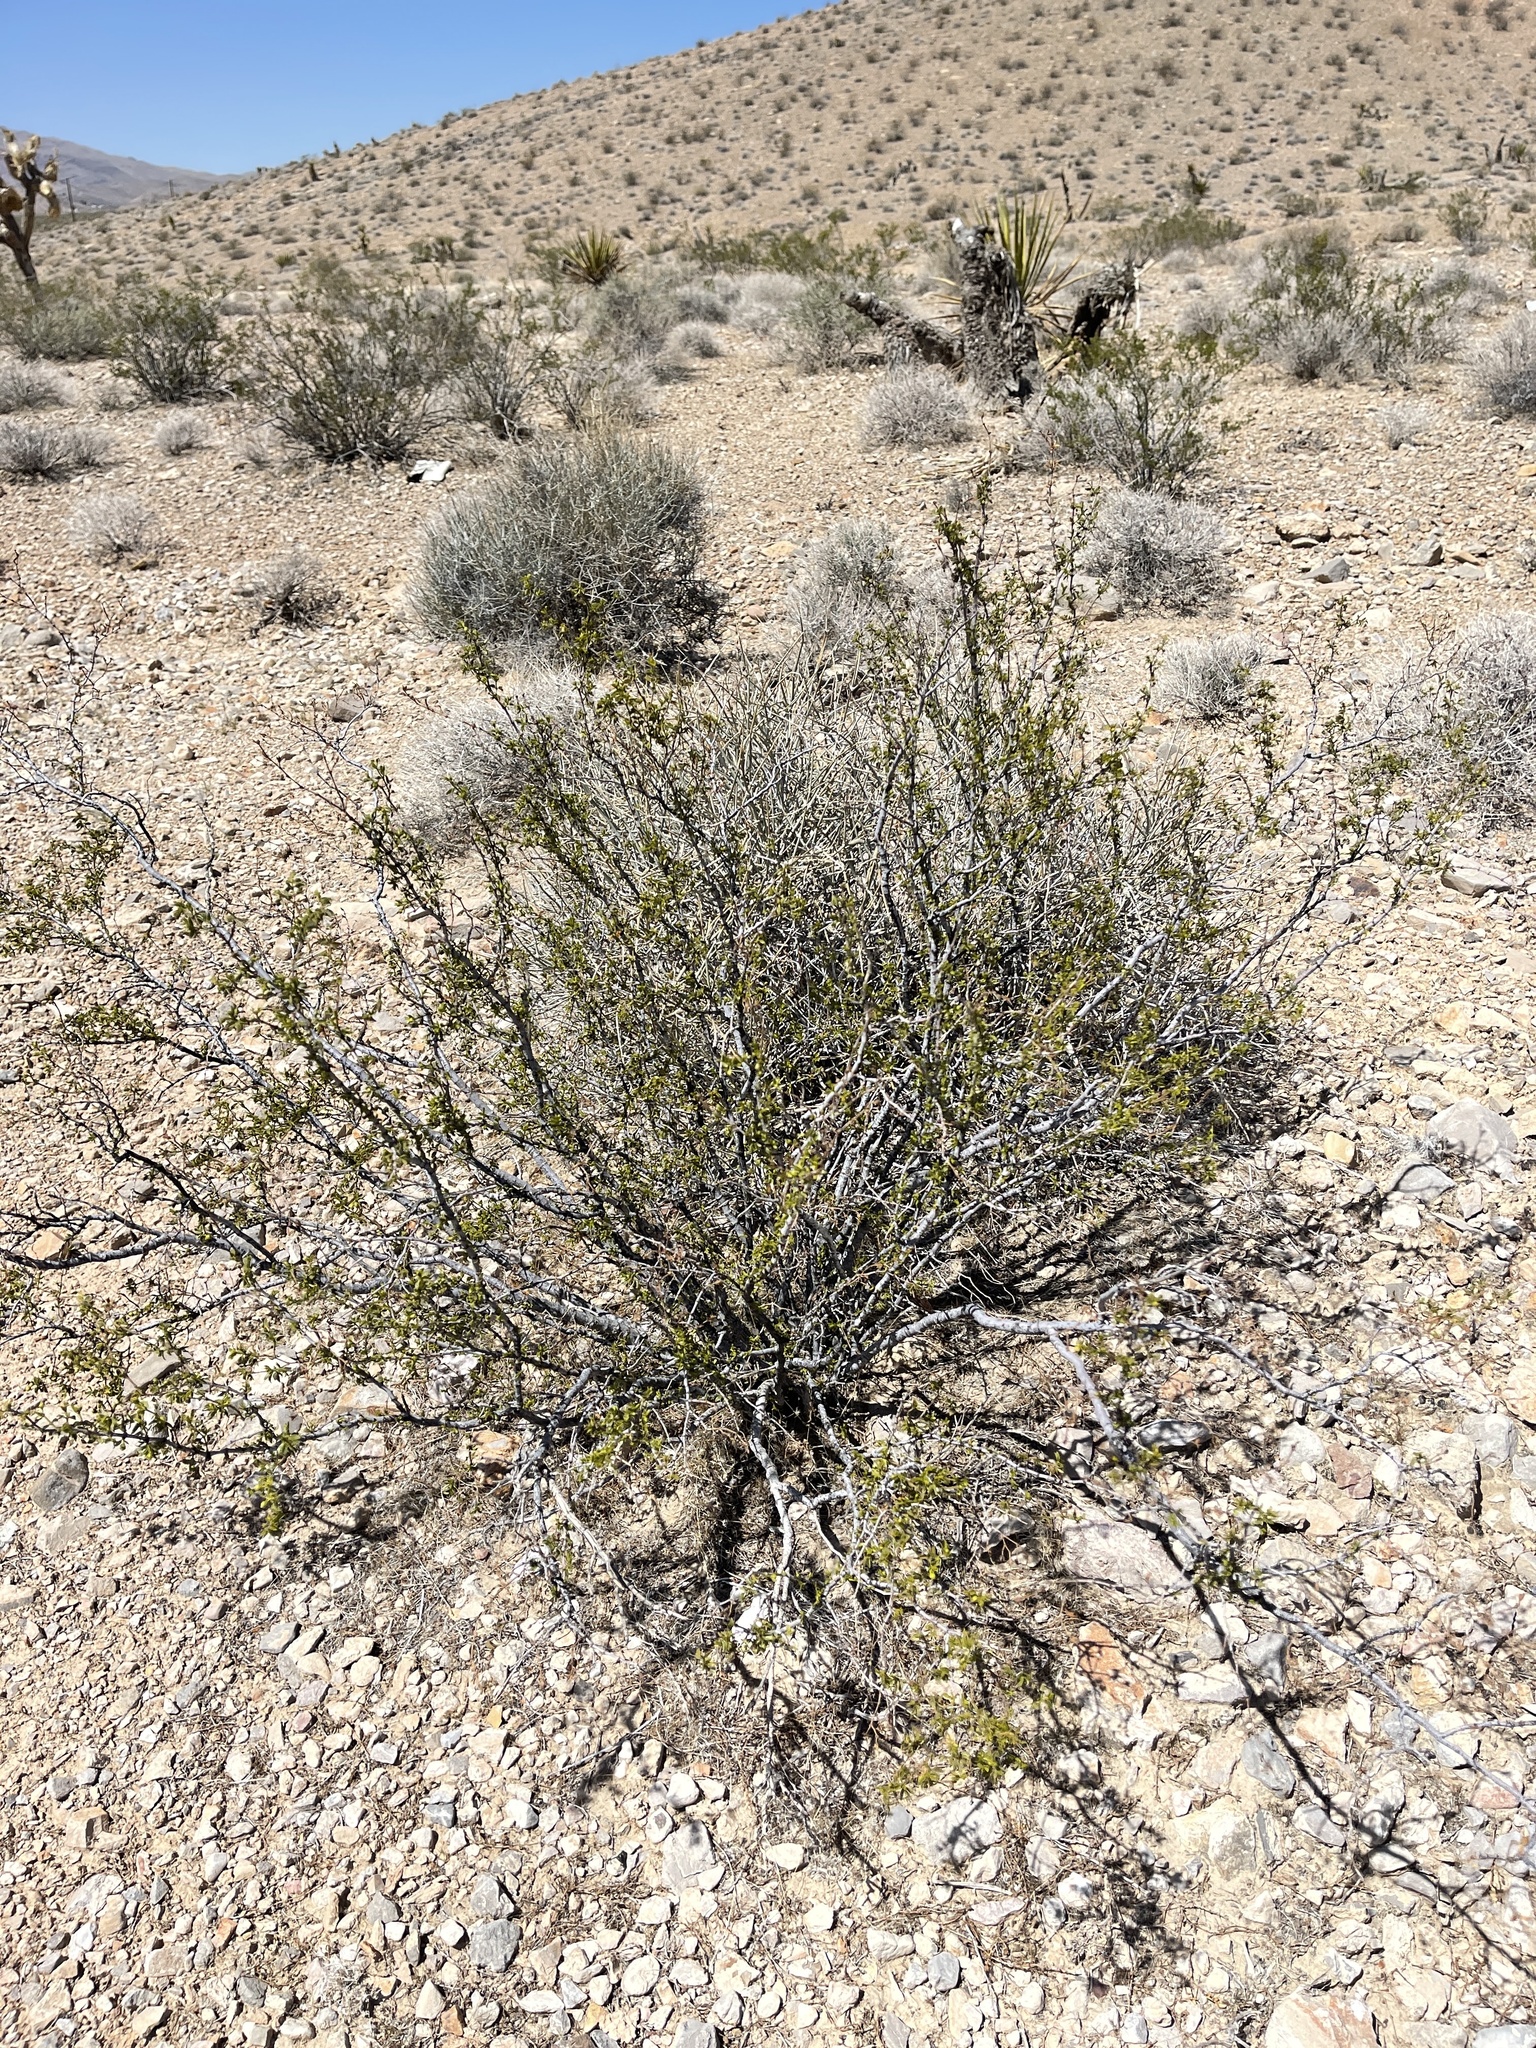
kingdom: Plantae
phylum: Tracheophyta
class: Magnoliopsida
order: Zygophyllales
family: Zygophyllaceae
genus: Larrea
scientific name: Larrea tridentata
